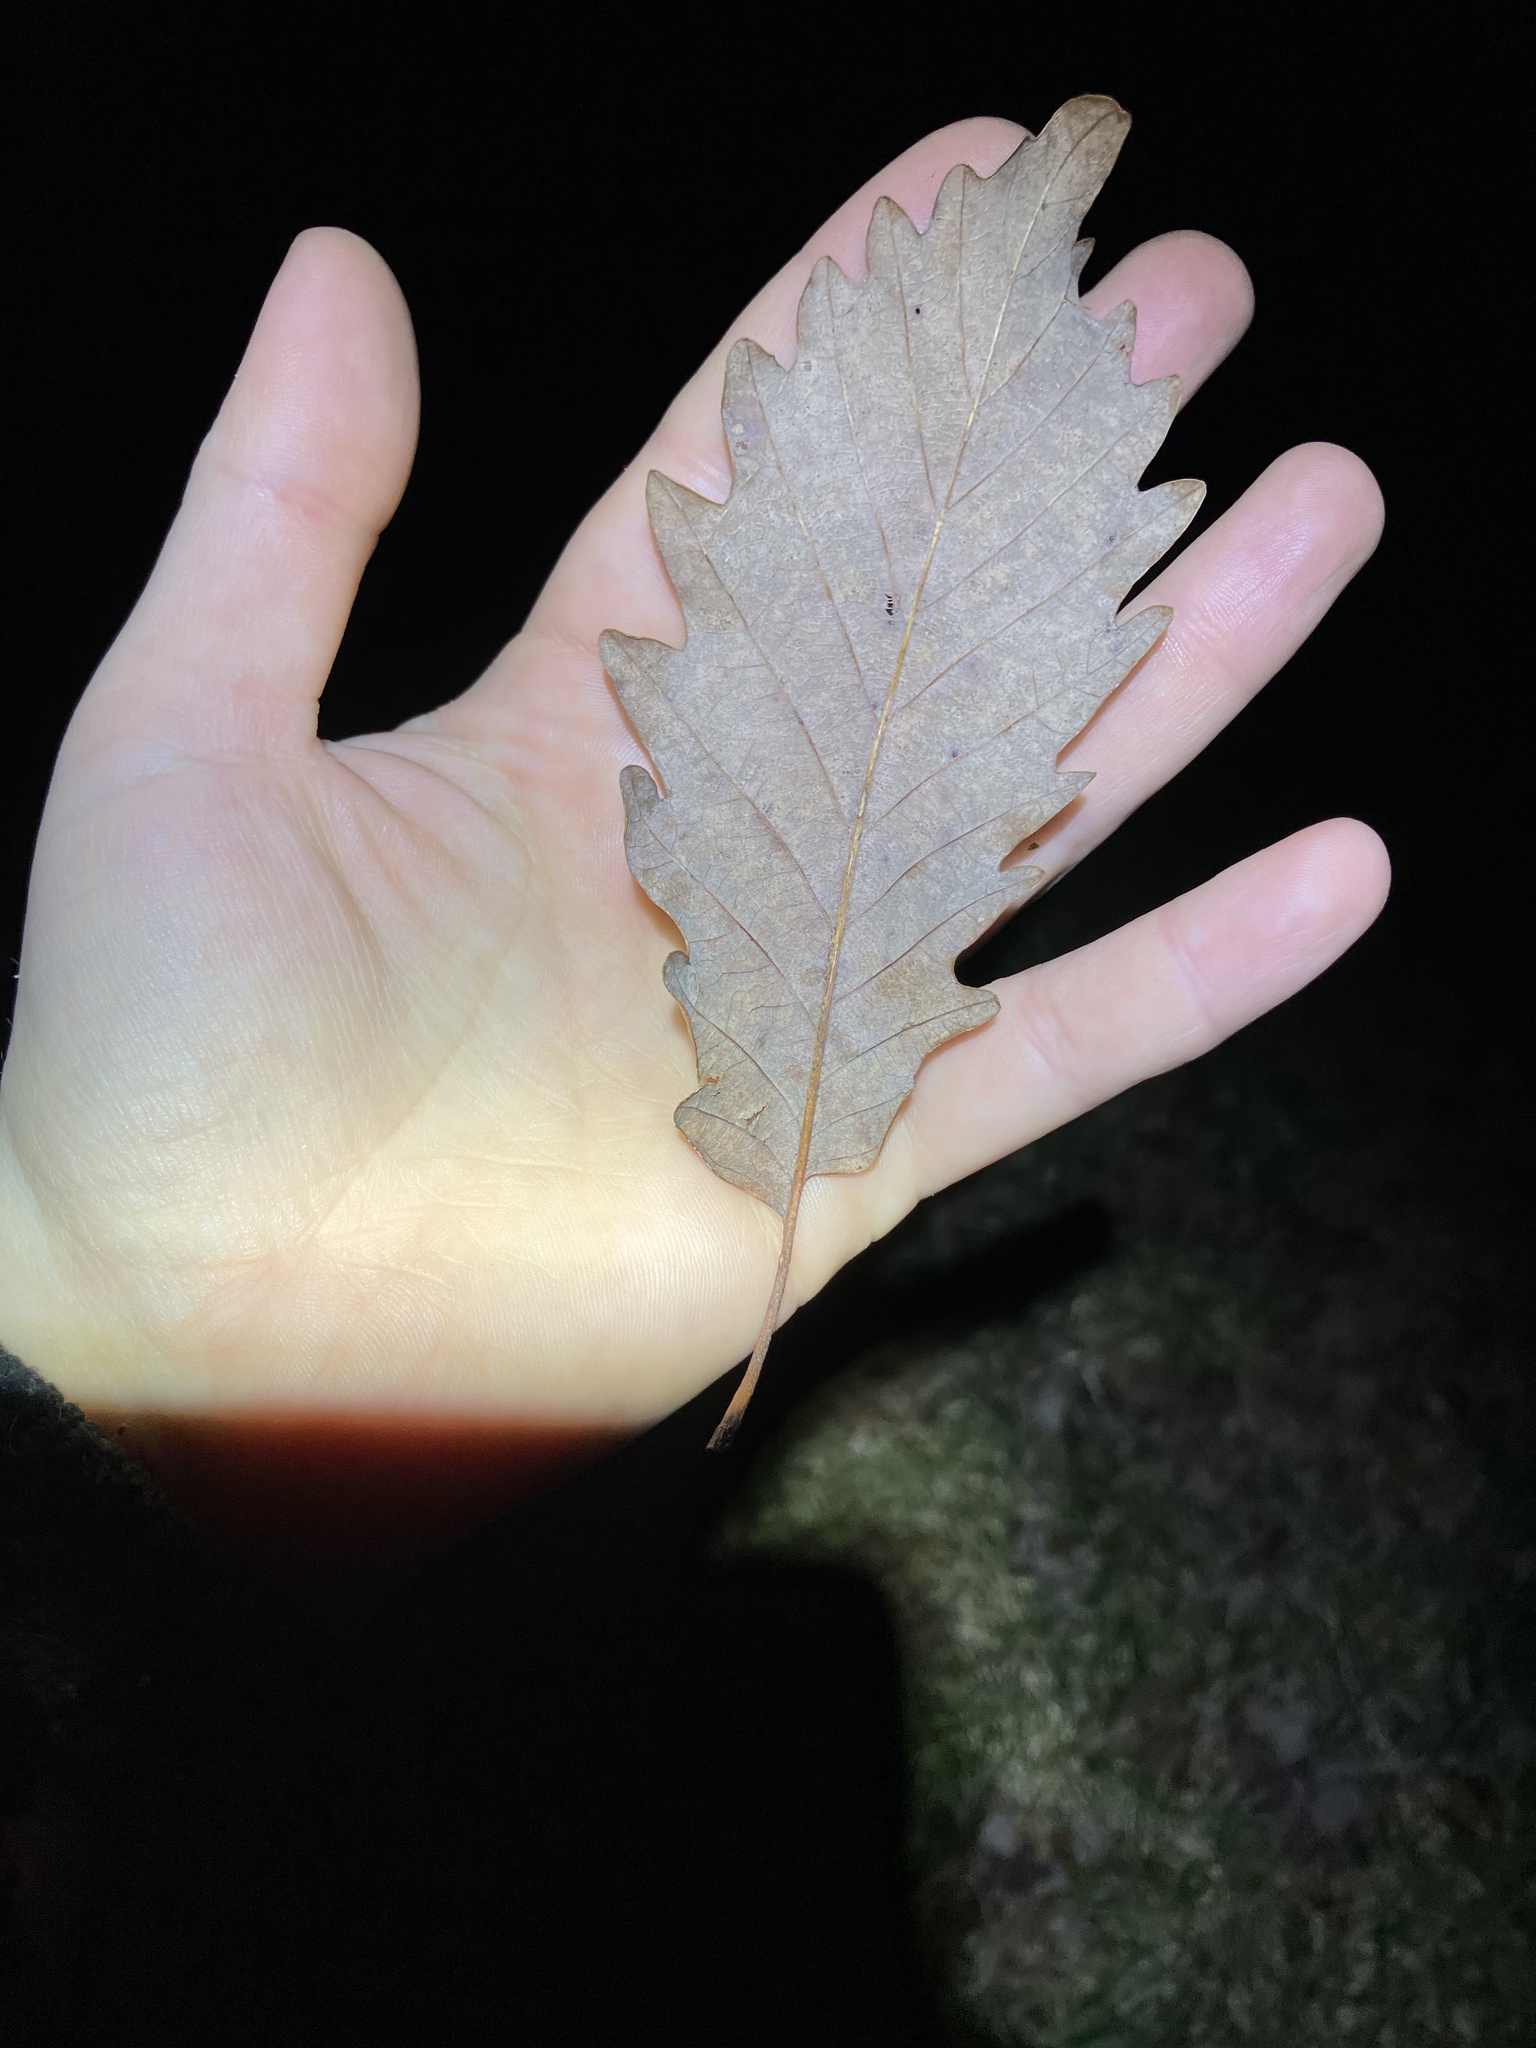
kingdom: Plantae
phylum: Tracheophyta
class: Magnoliopsida
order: Fagales
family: Fagaceae
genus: Quercus
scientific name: Quercus michauxii
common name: Swamp chestnut oak
